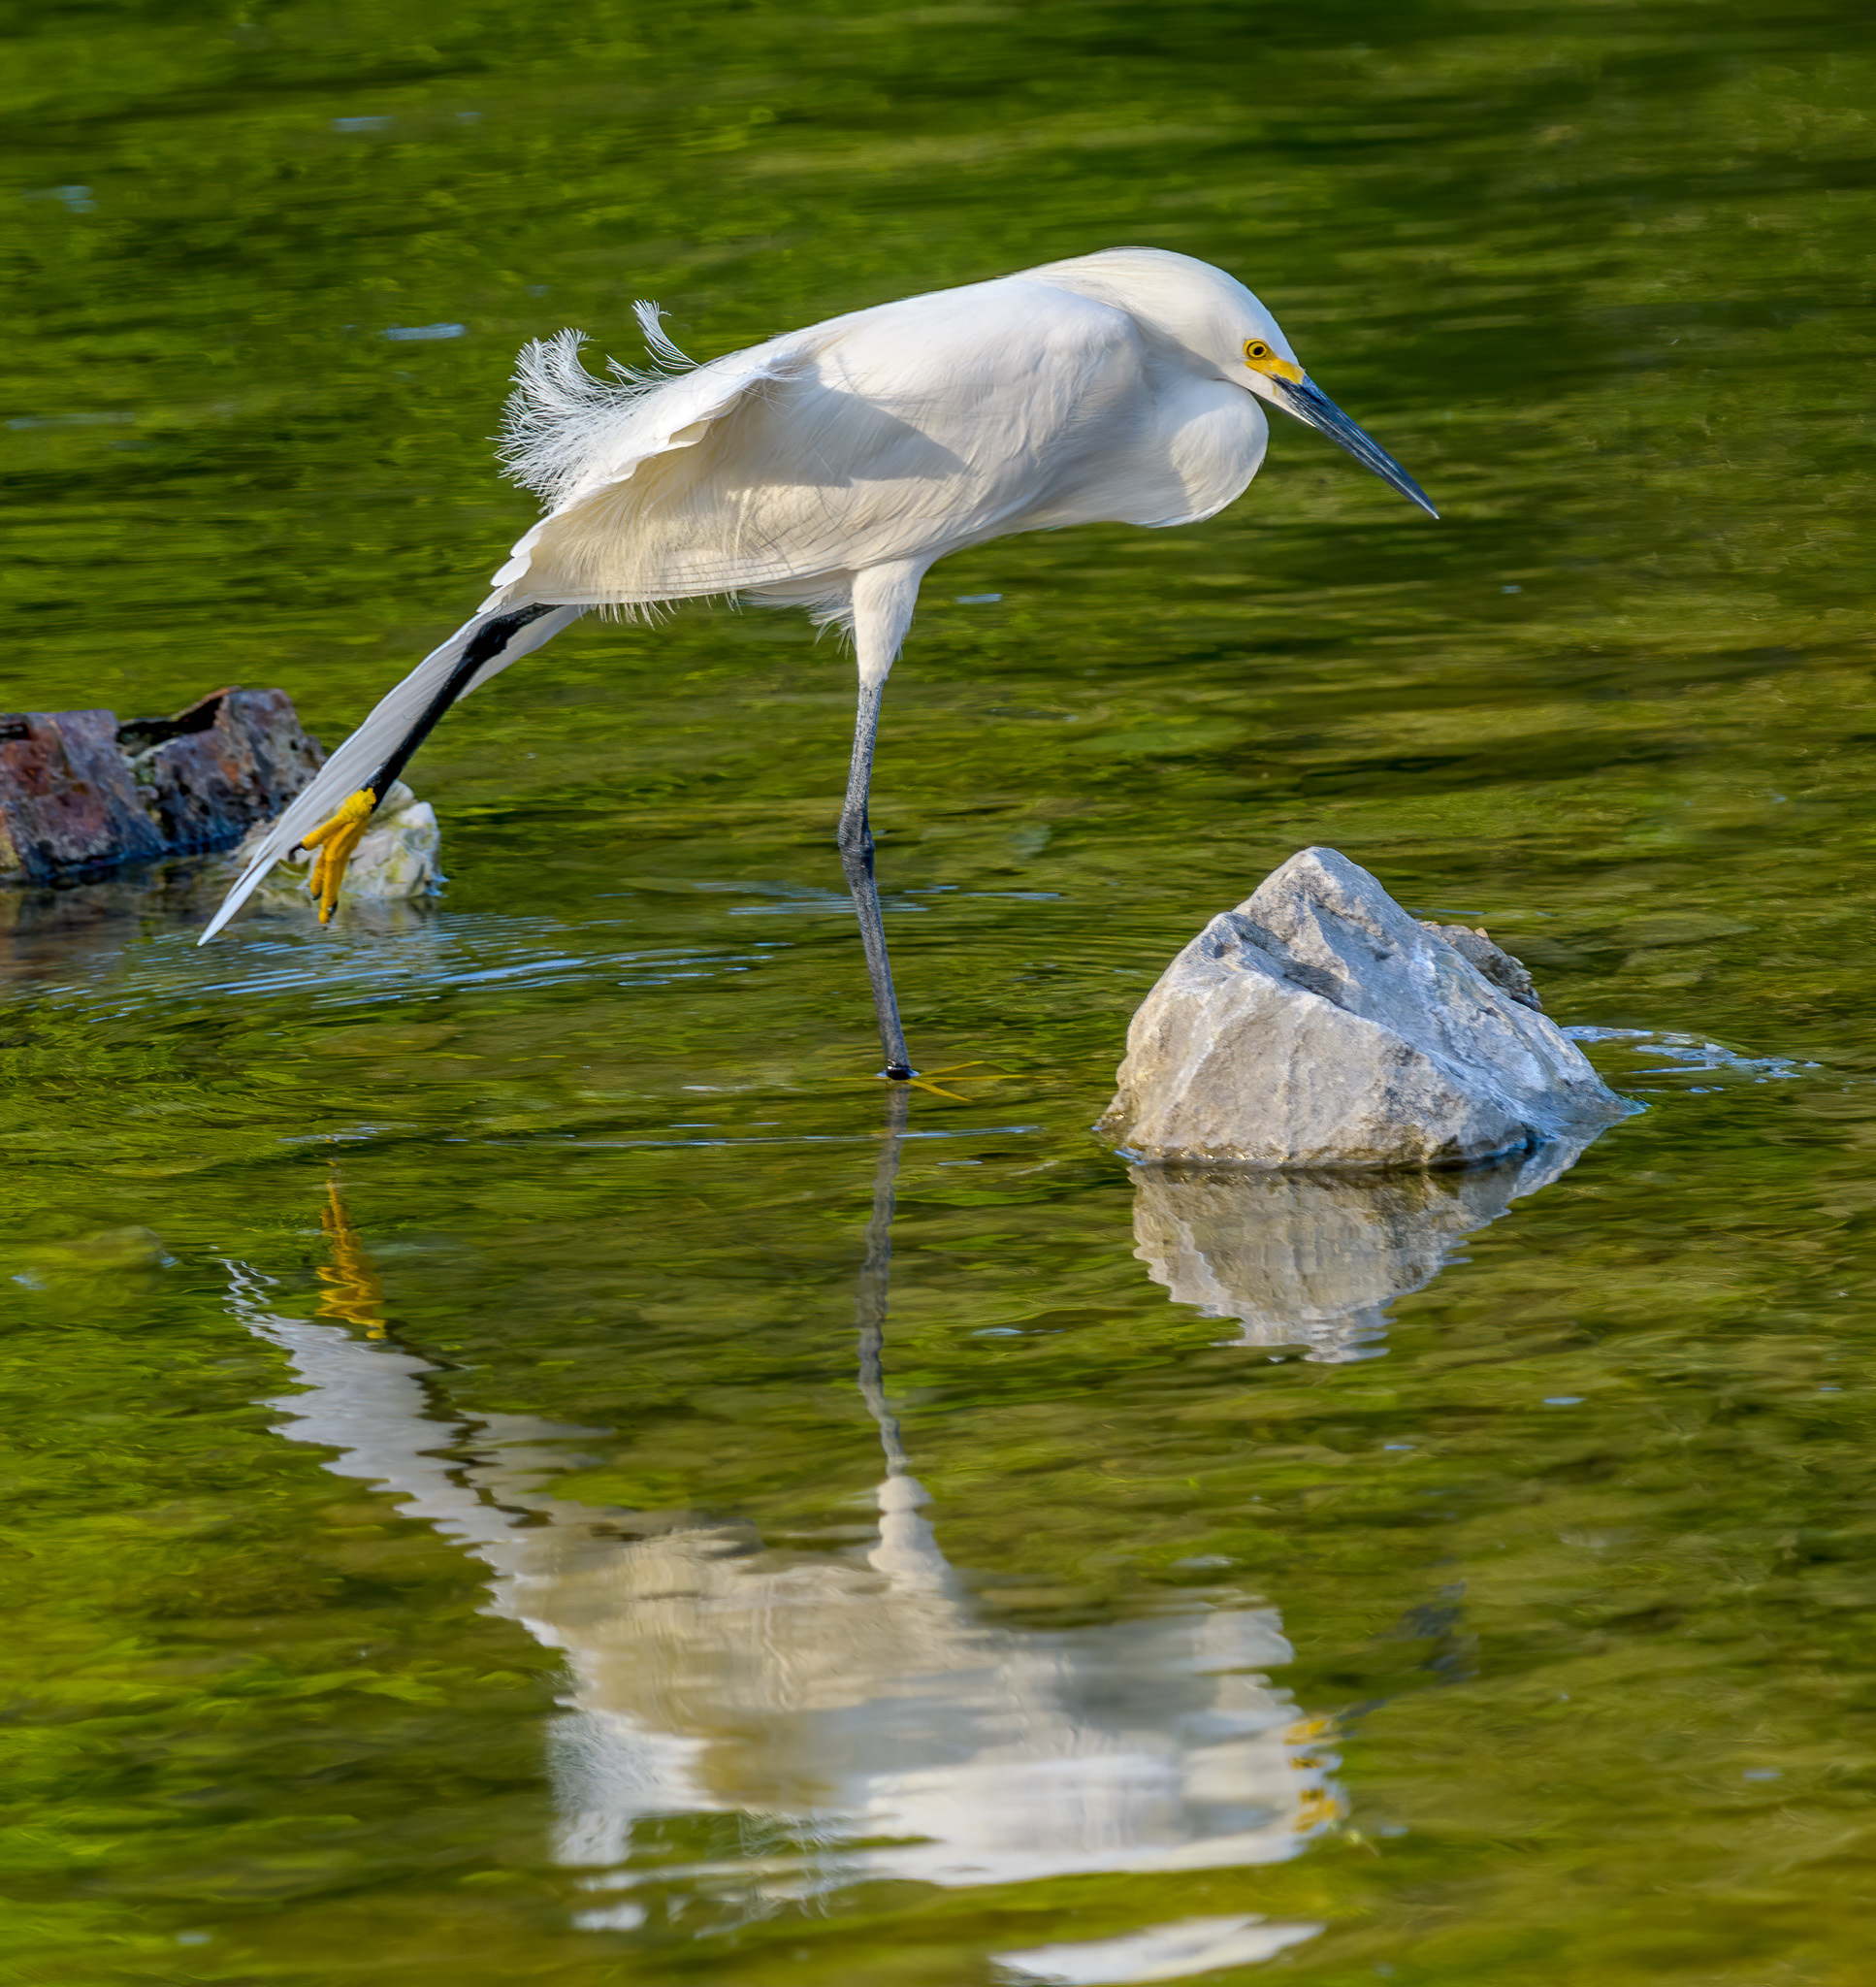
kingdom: Animalia
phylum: Chordata
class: Aves
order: Pelecaniformes
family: Ardeidae
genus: Egretta
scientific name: Egretta thula
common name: Snowy egret
